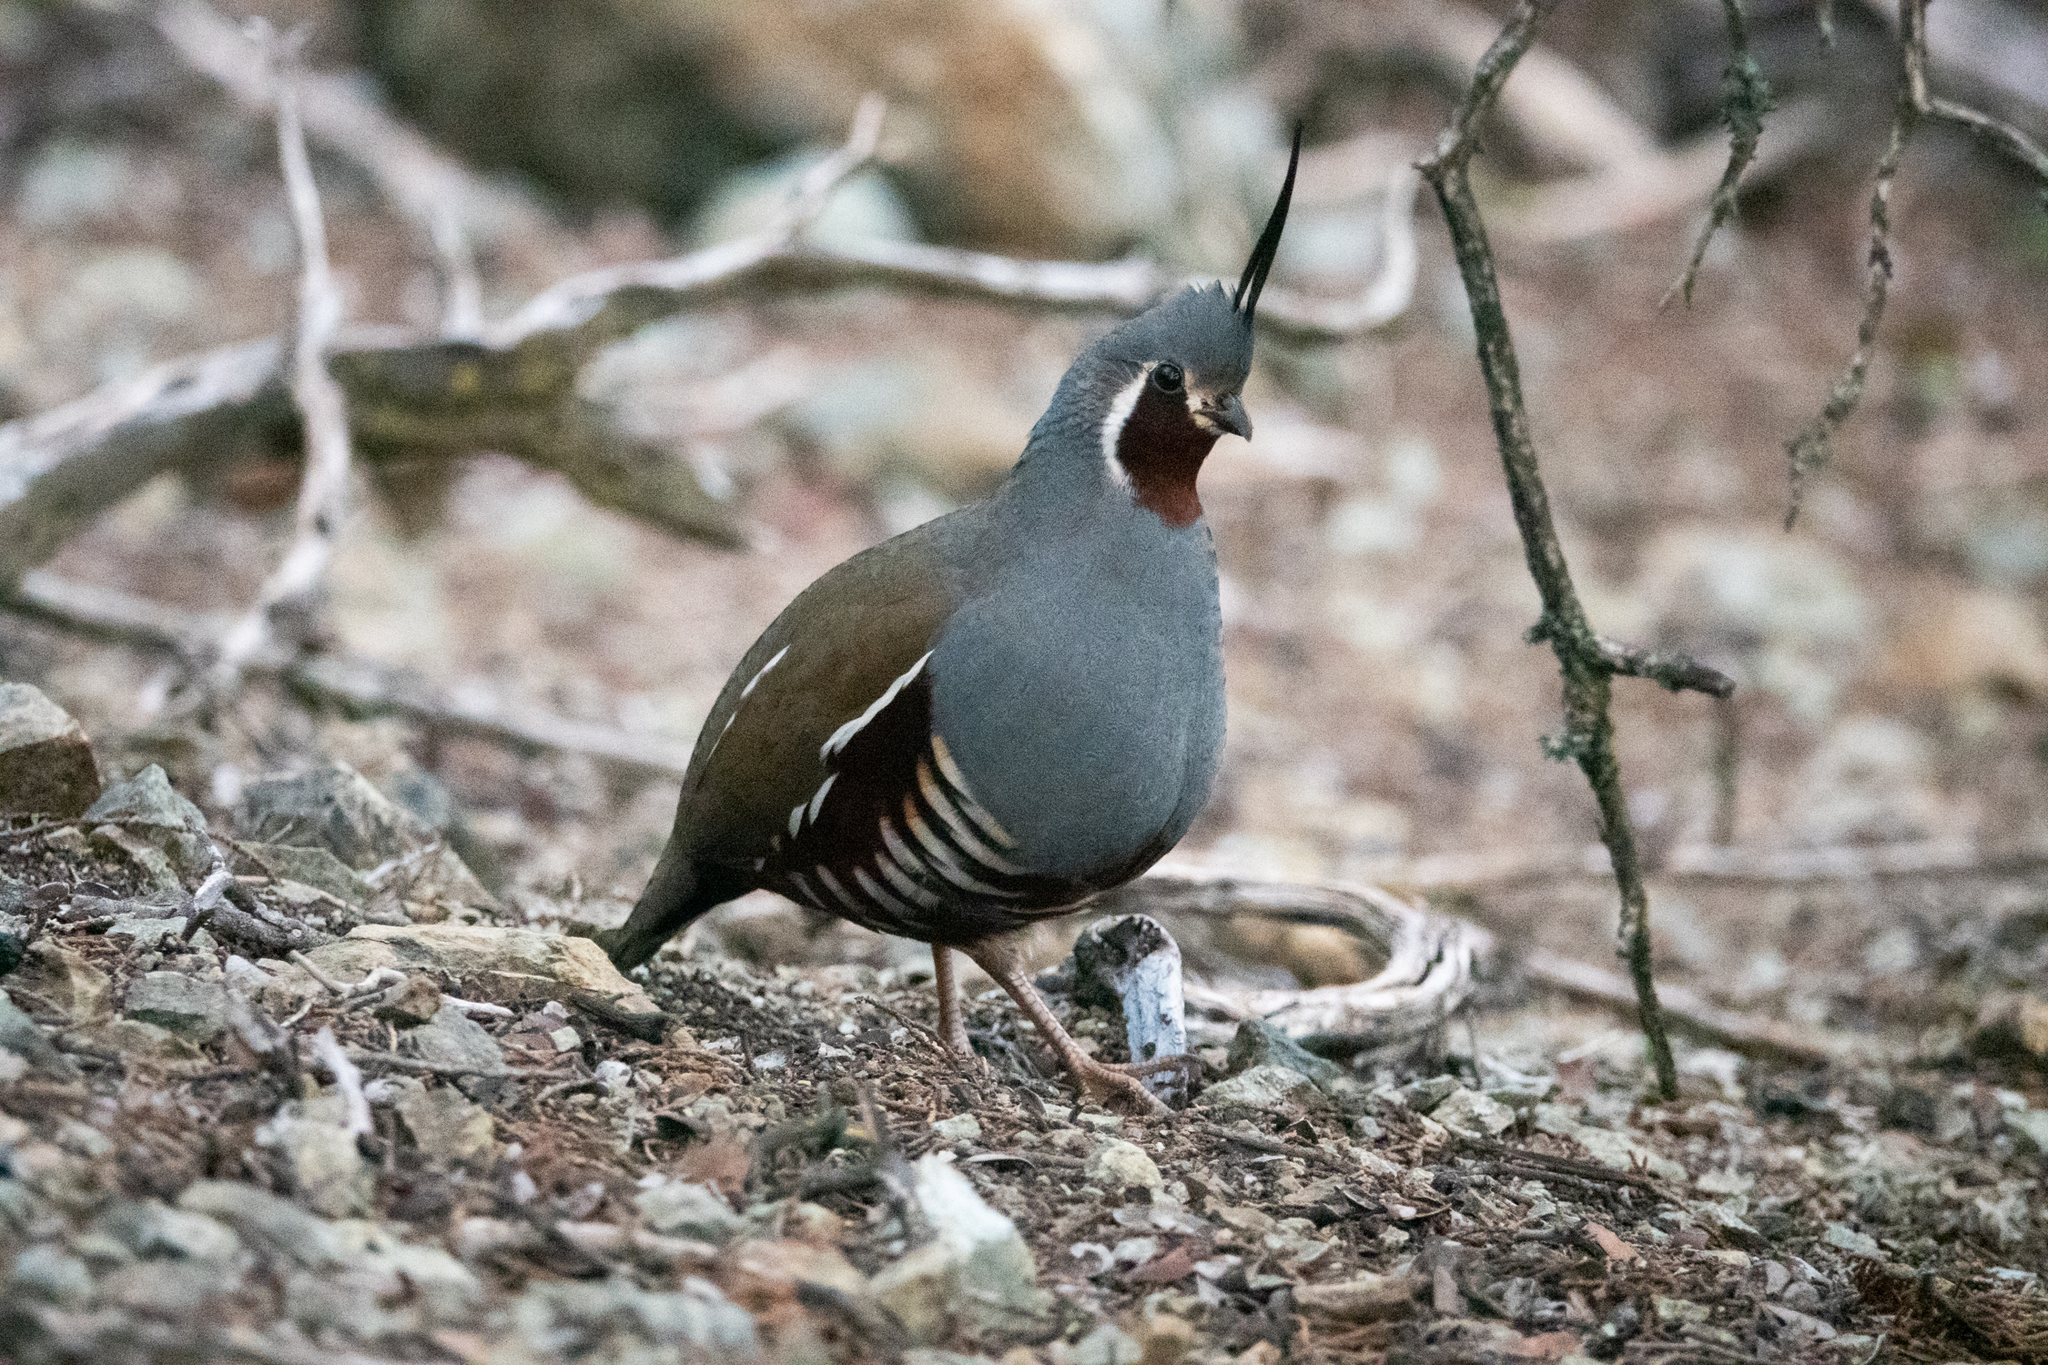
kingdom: Animalia
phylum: Chordata
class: Aves
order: Galliformes
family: Odontophoridae
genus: Oreortyx
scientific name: Oreortyx pictus
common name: Mountain quail
